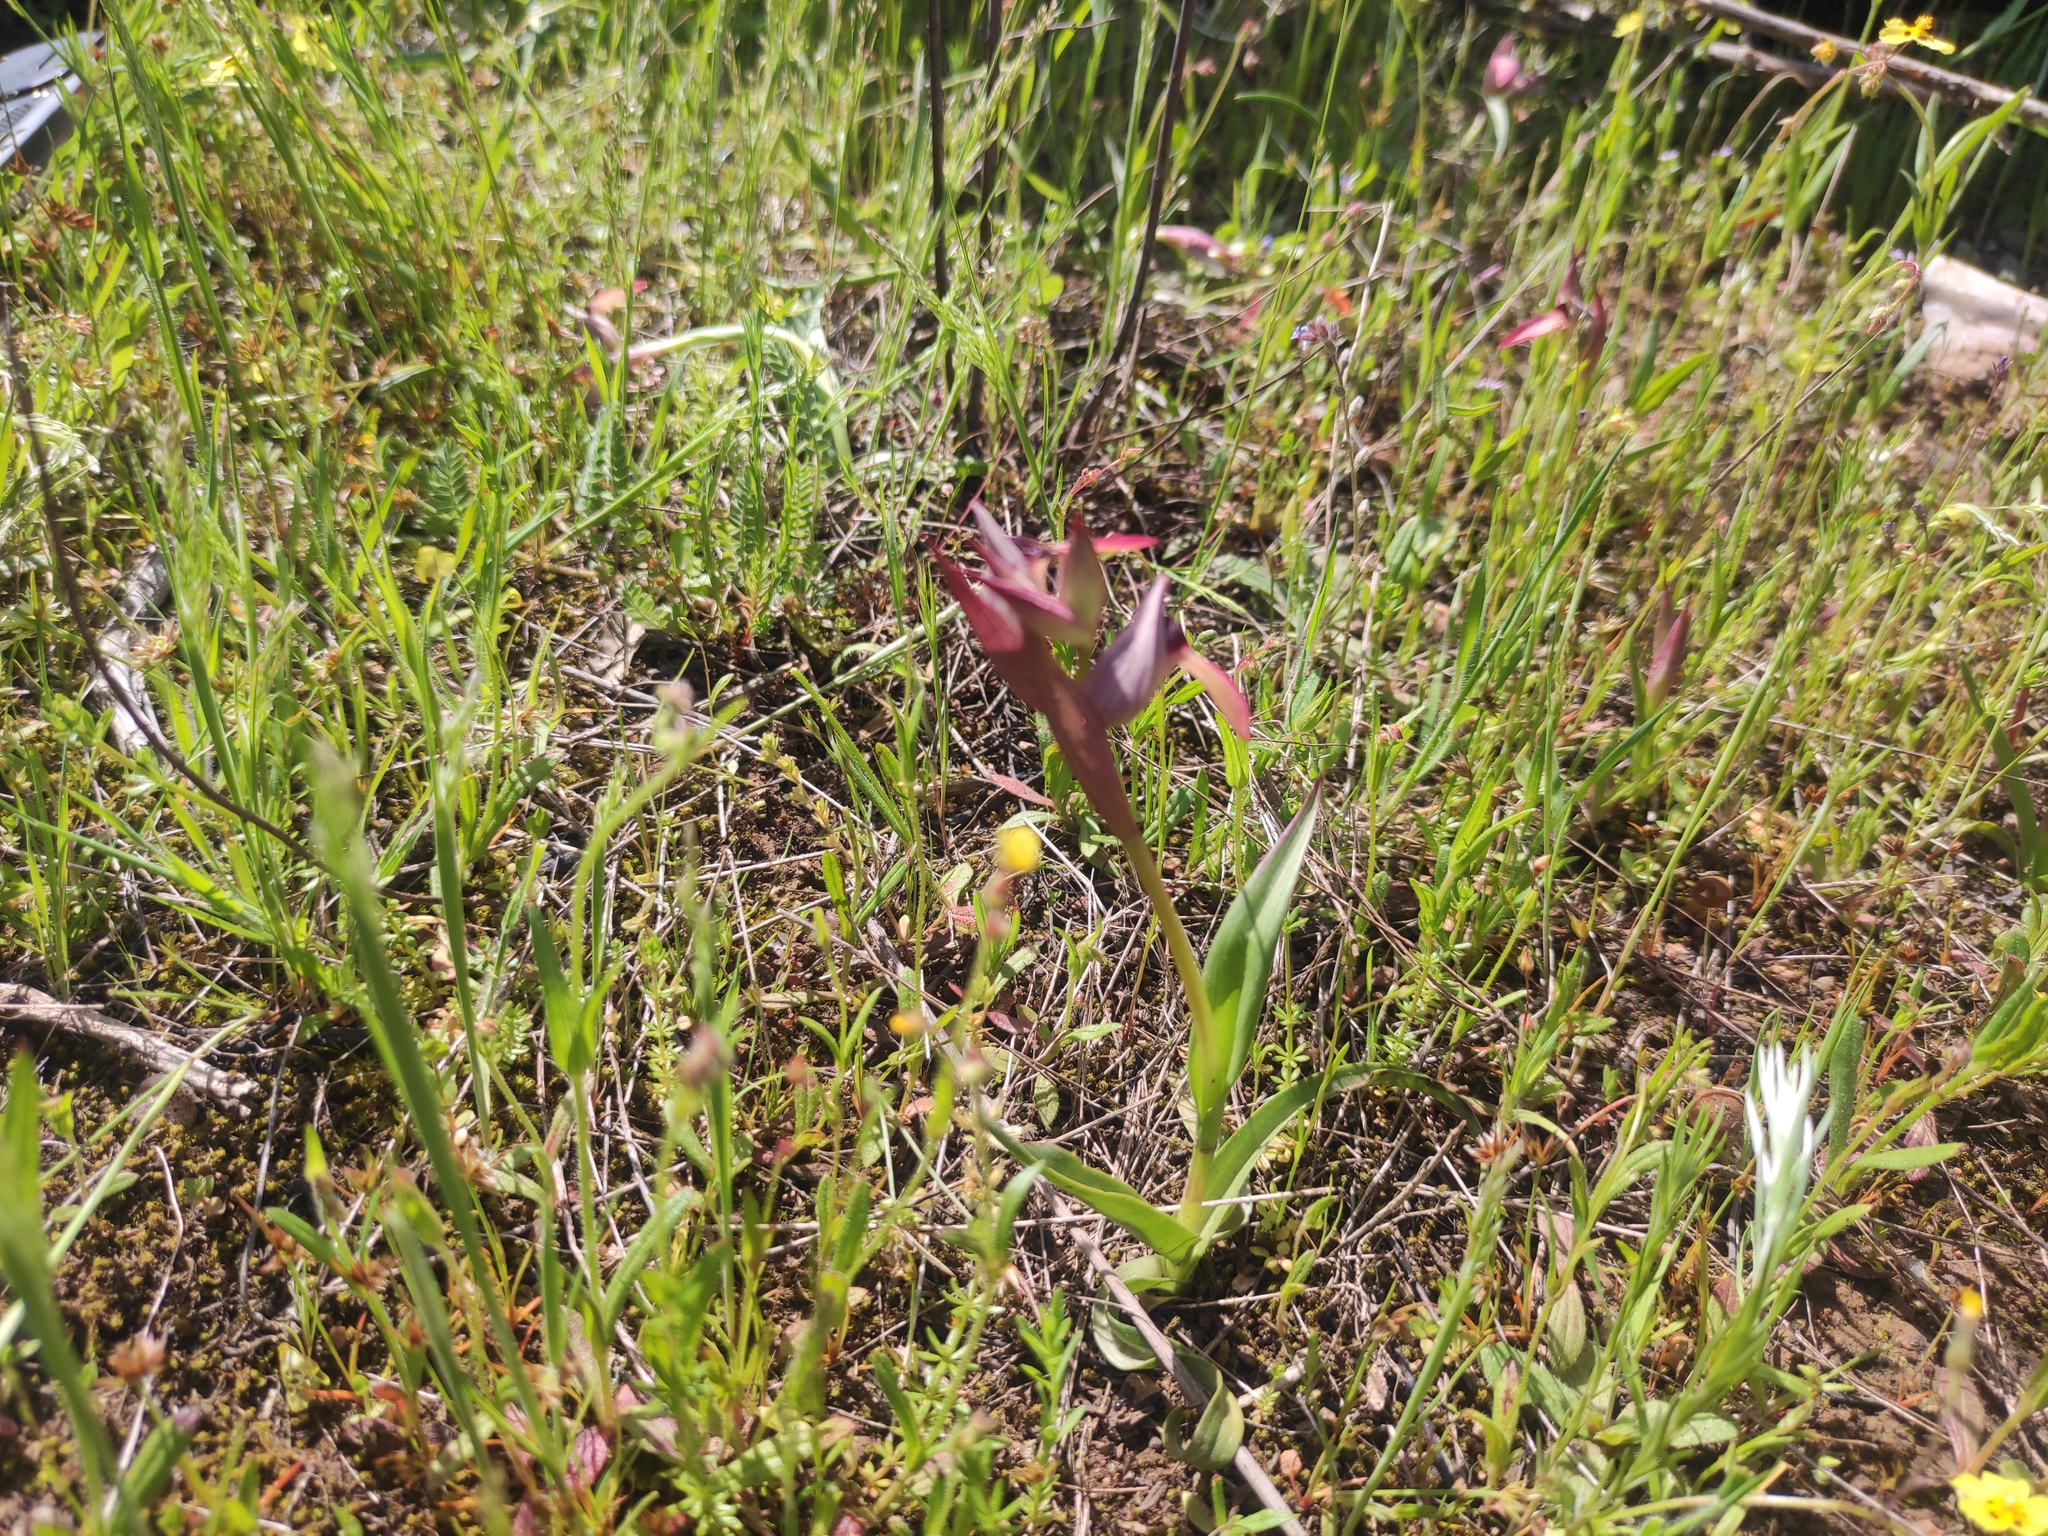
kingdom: Plantae
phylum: Tracheophyta
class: Liliopsida
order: Asparagales
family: Orchidaceae
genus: Serapias
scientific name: Serapias lingua
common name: Tongue-orchid
